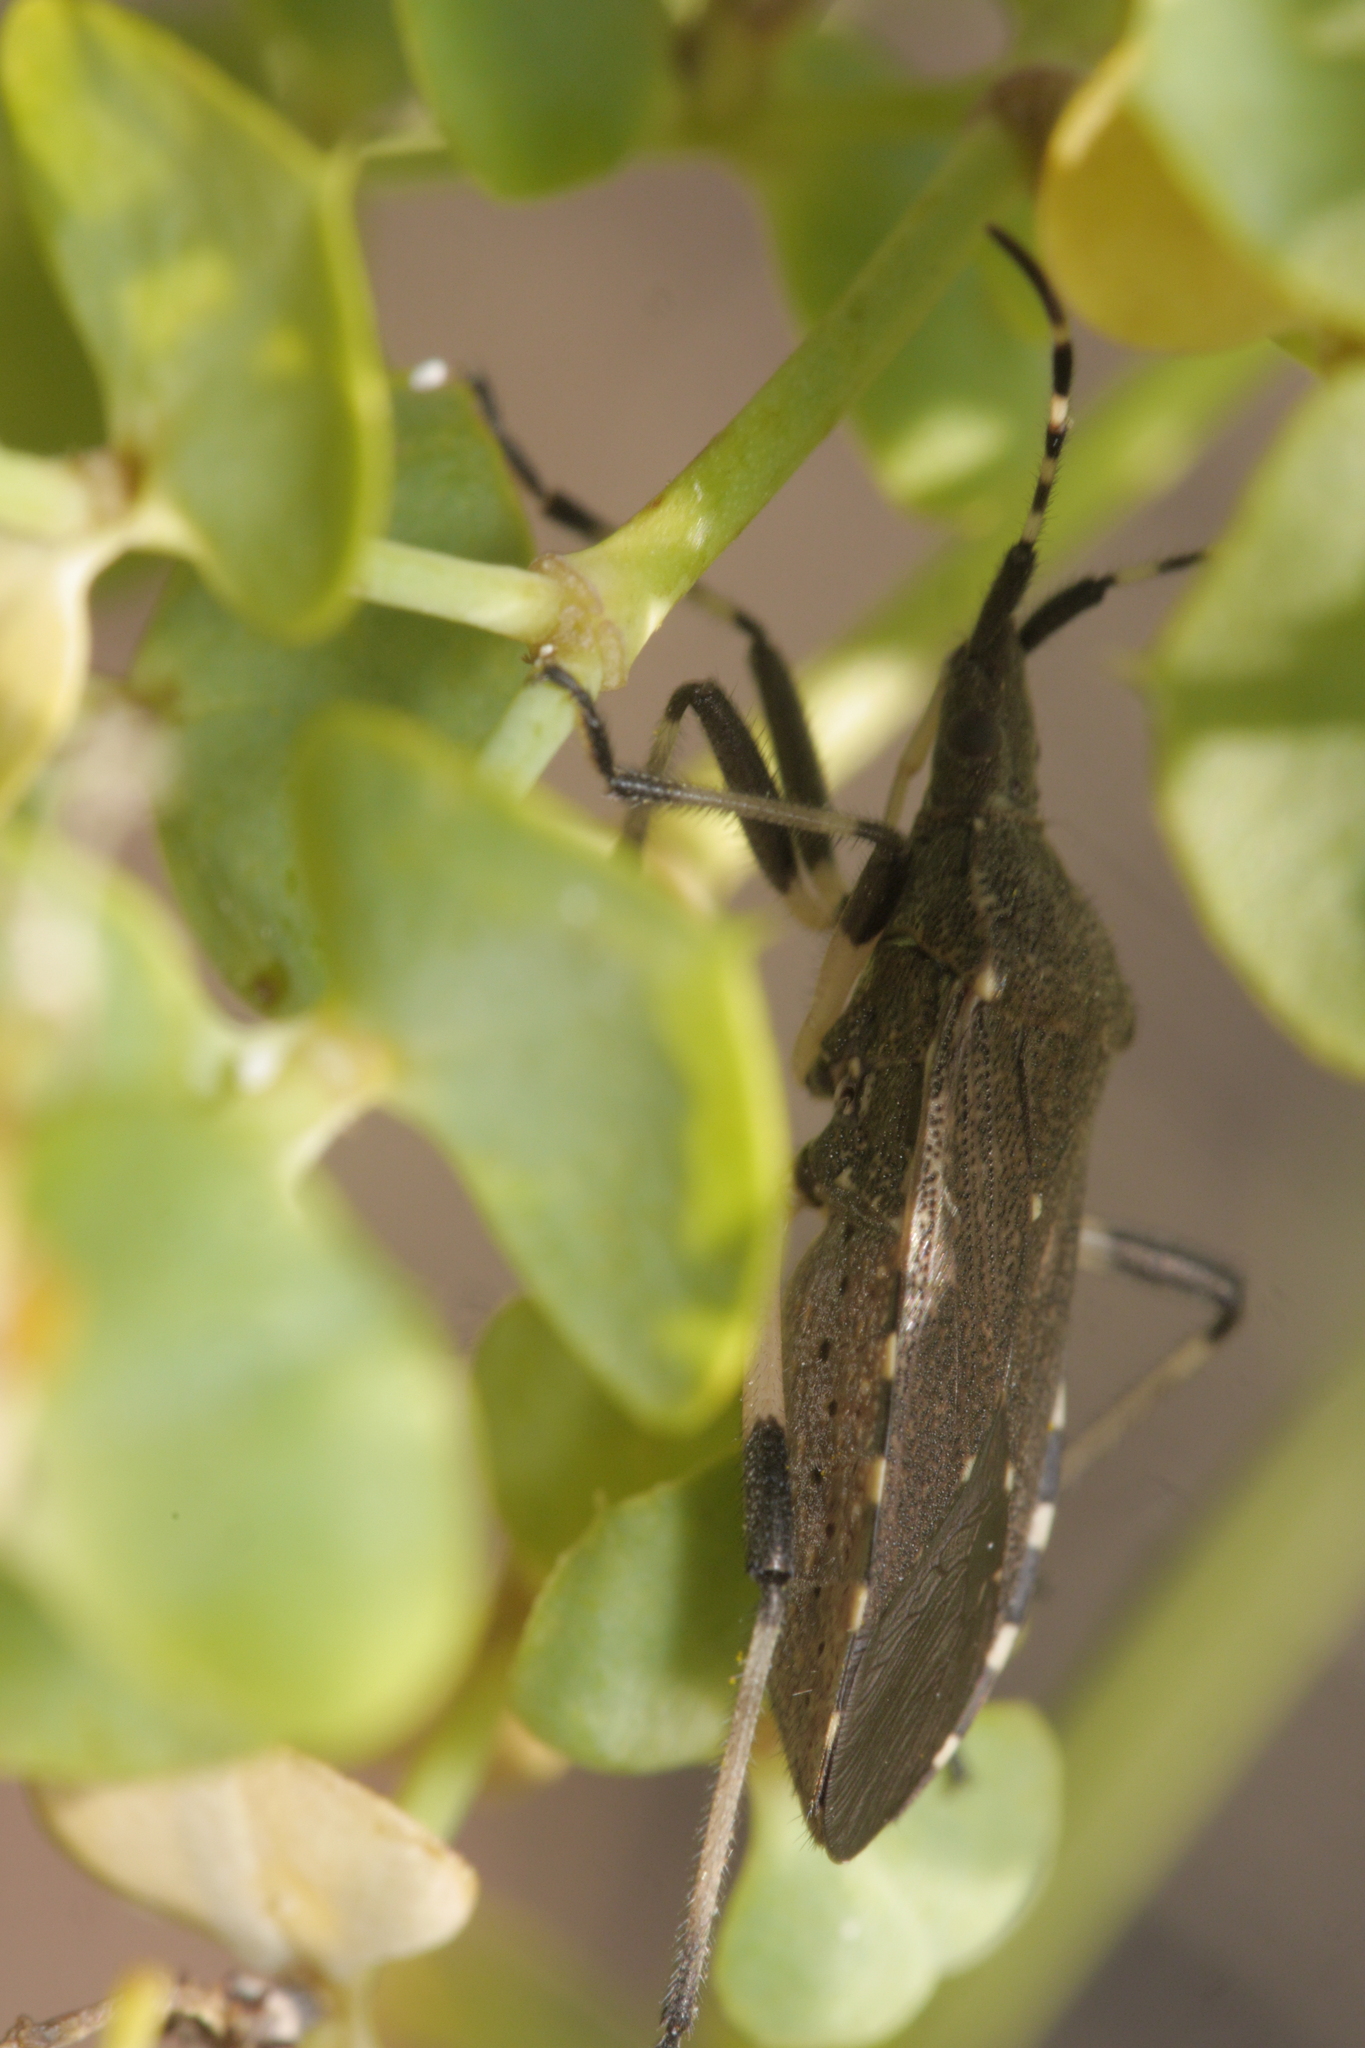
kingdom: Animalia
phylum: Arthropoda
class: Insecta
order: Hemiptera
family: Stenocephalidae
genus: Dicranocephalus
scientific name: Dicranocephalus agilis
